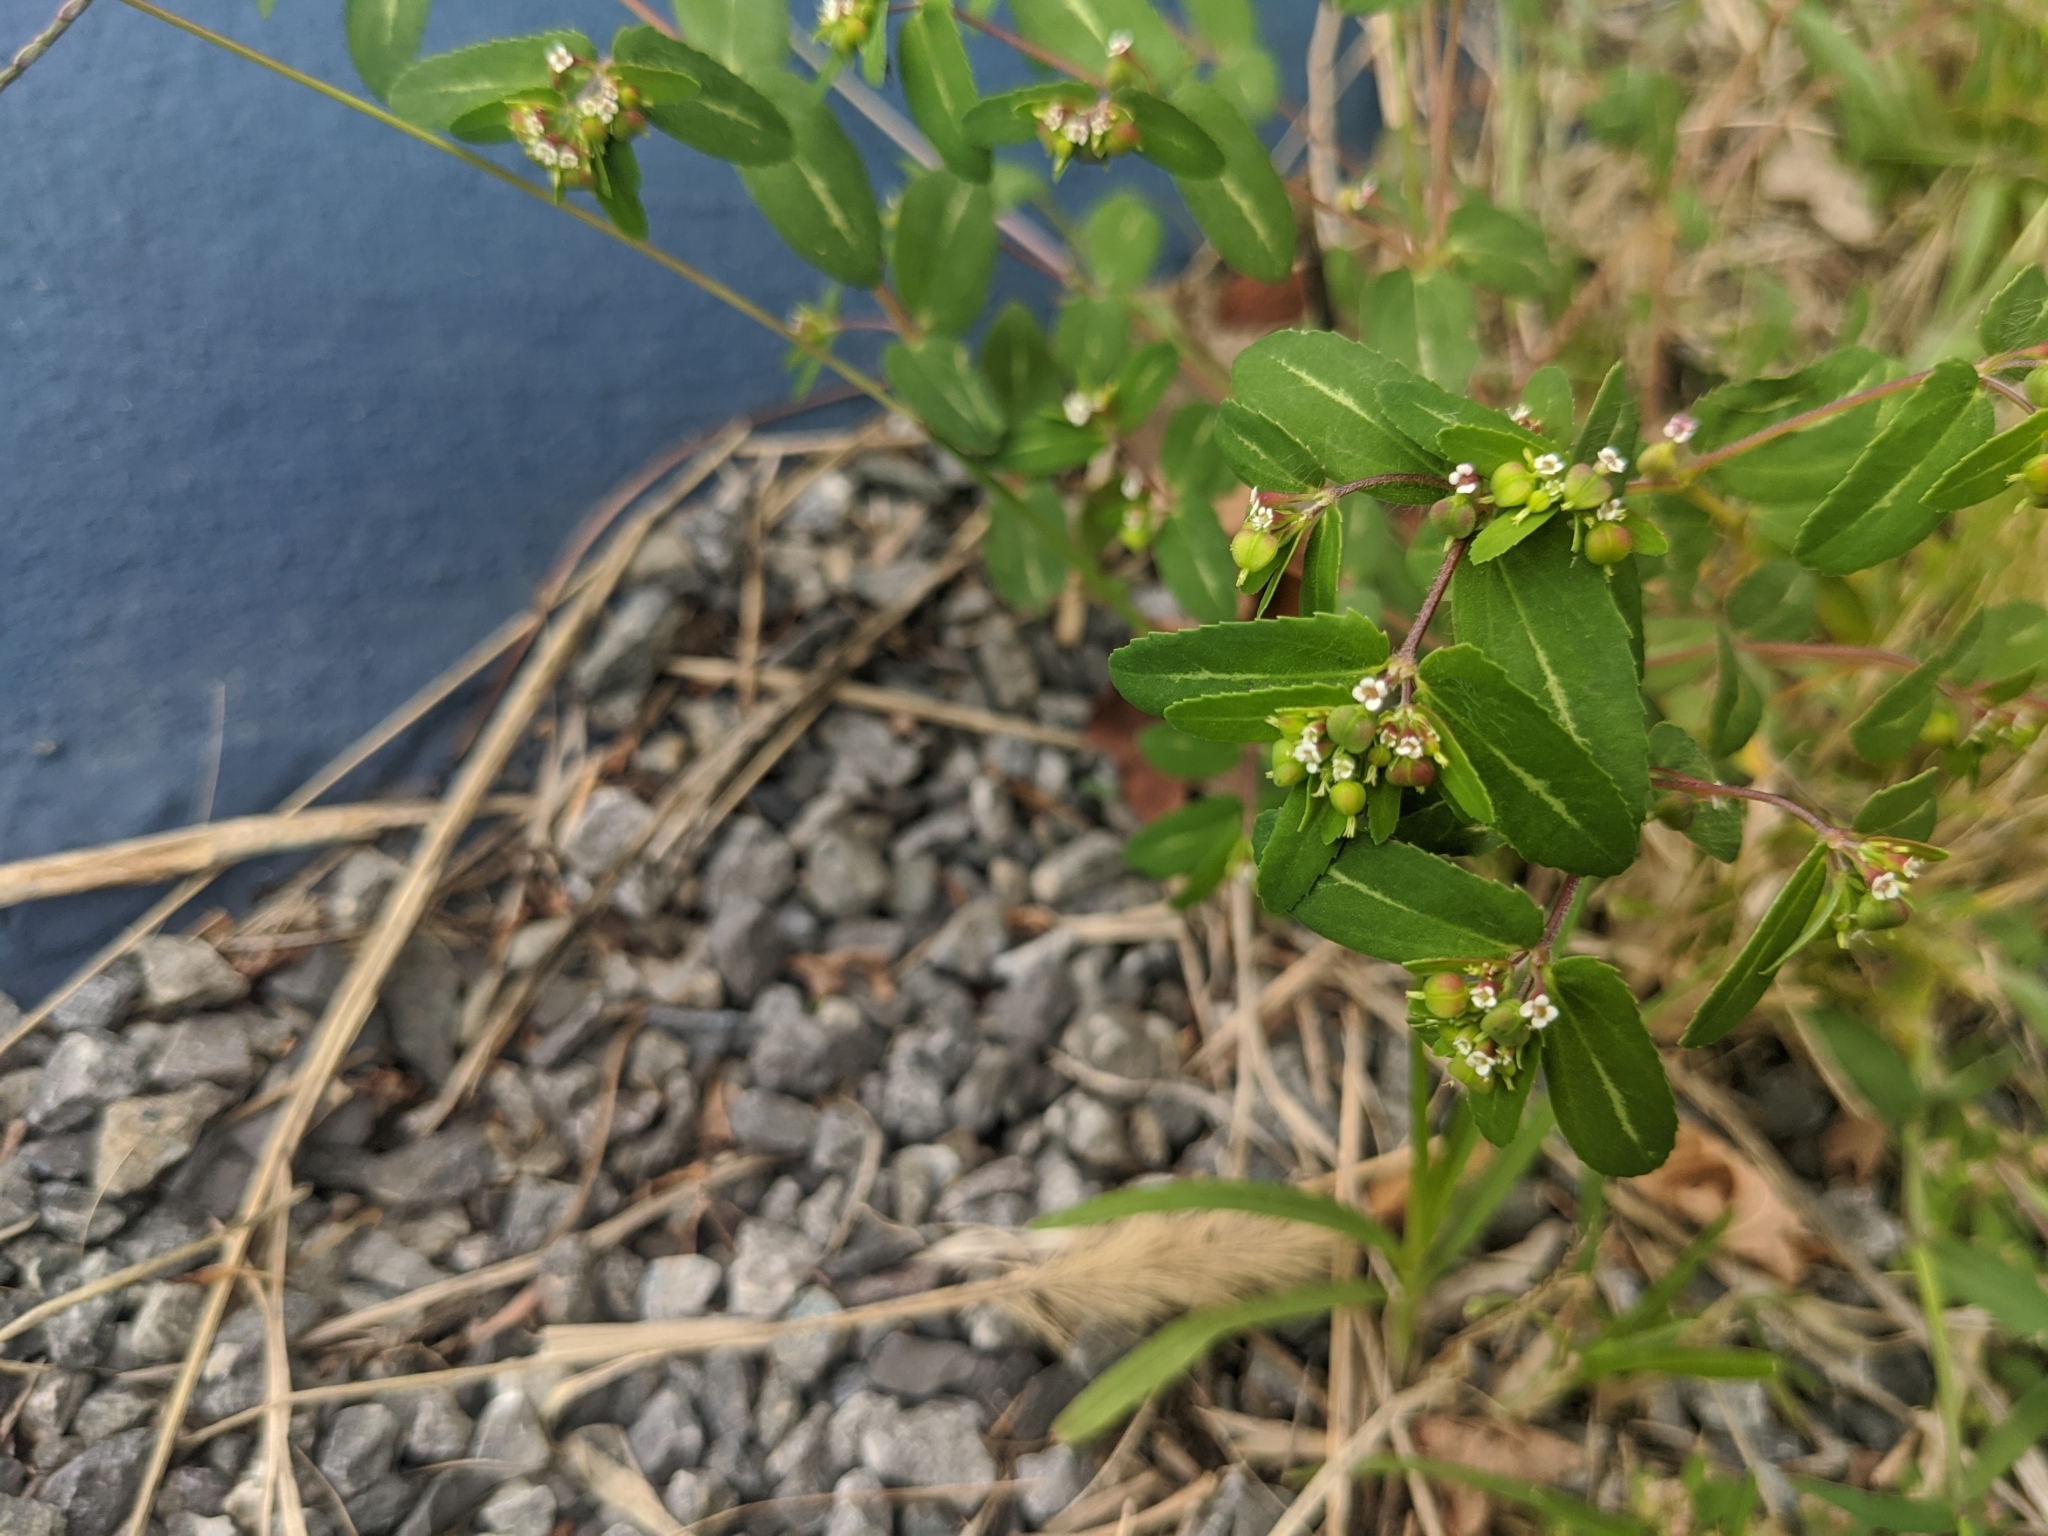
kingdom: Plantae
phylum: Tracheophyta
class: Magnoliopsida
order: Malpighiales
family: Euphorbiaceae
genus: Euphorbia
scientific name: Euphorbia nutans
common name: Eyebane
